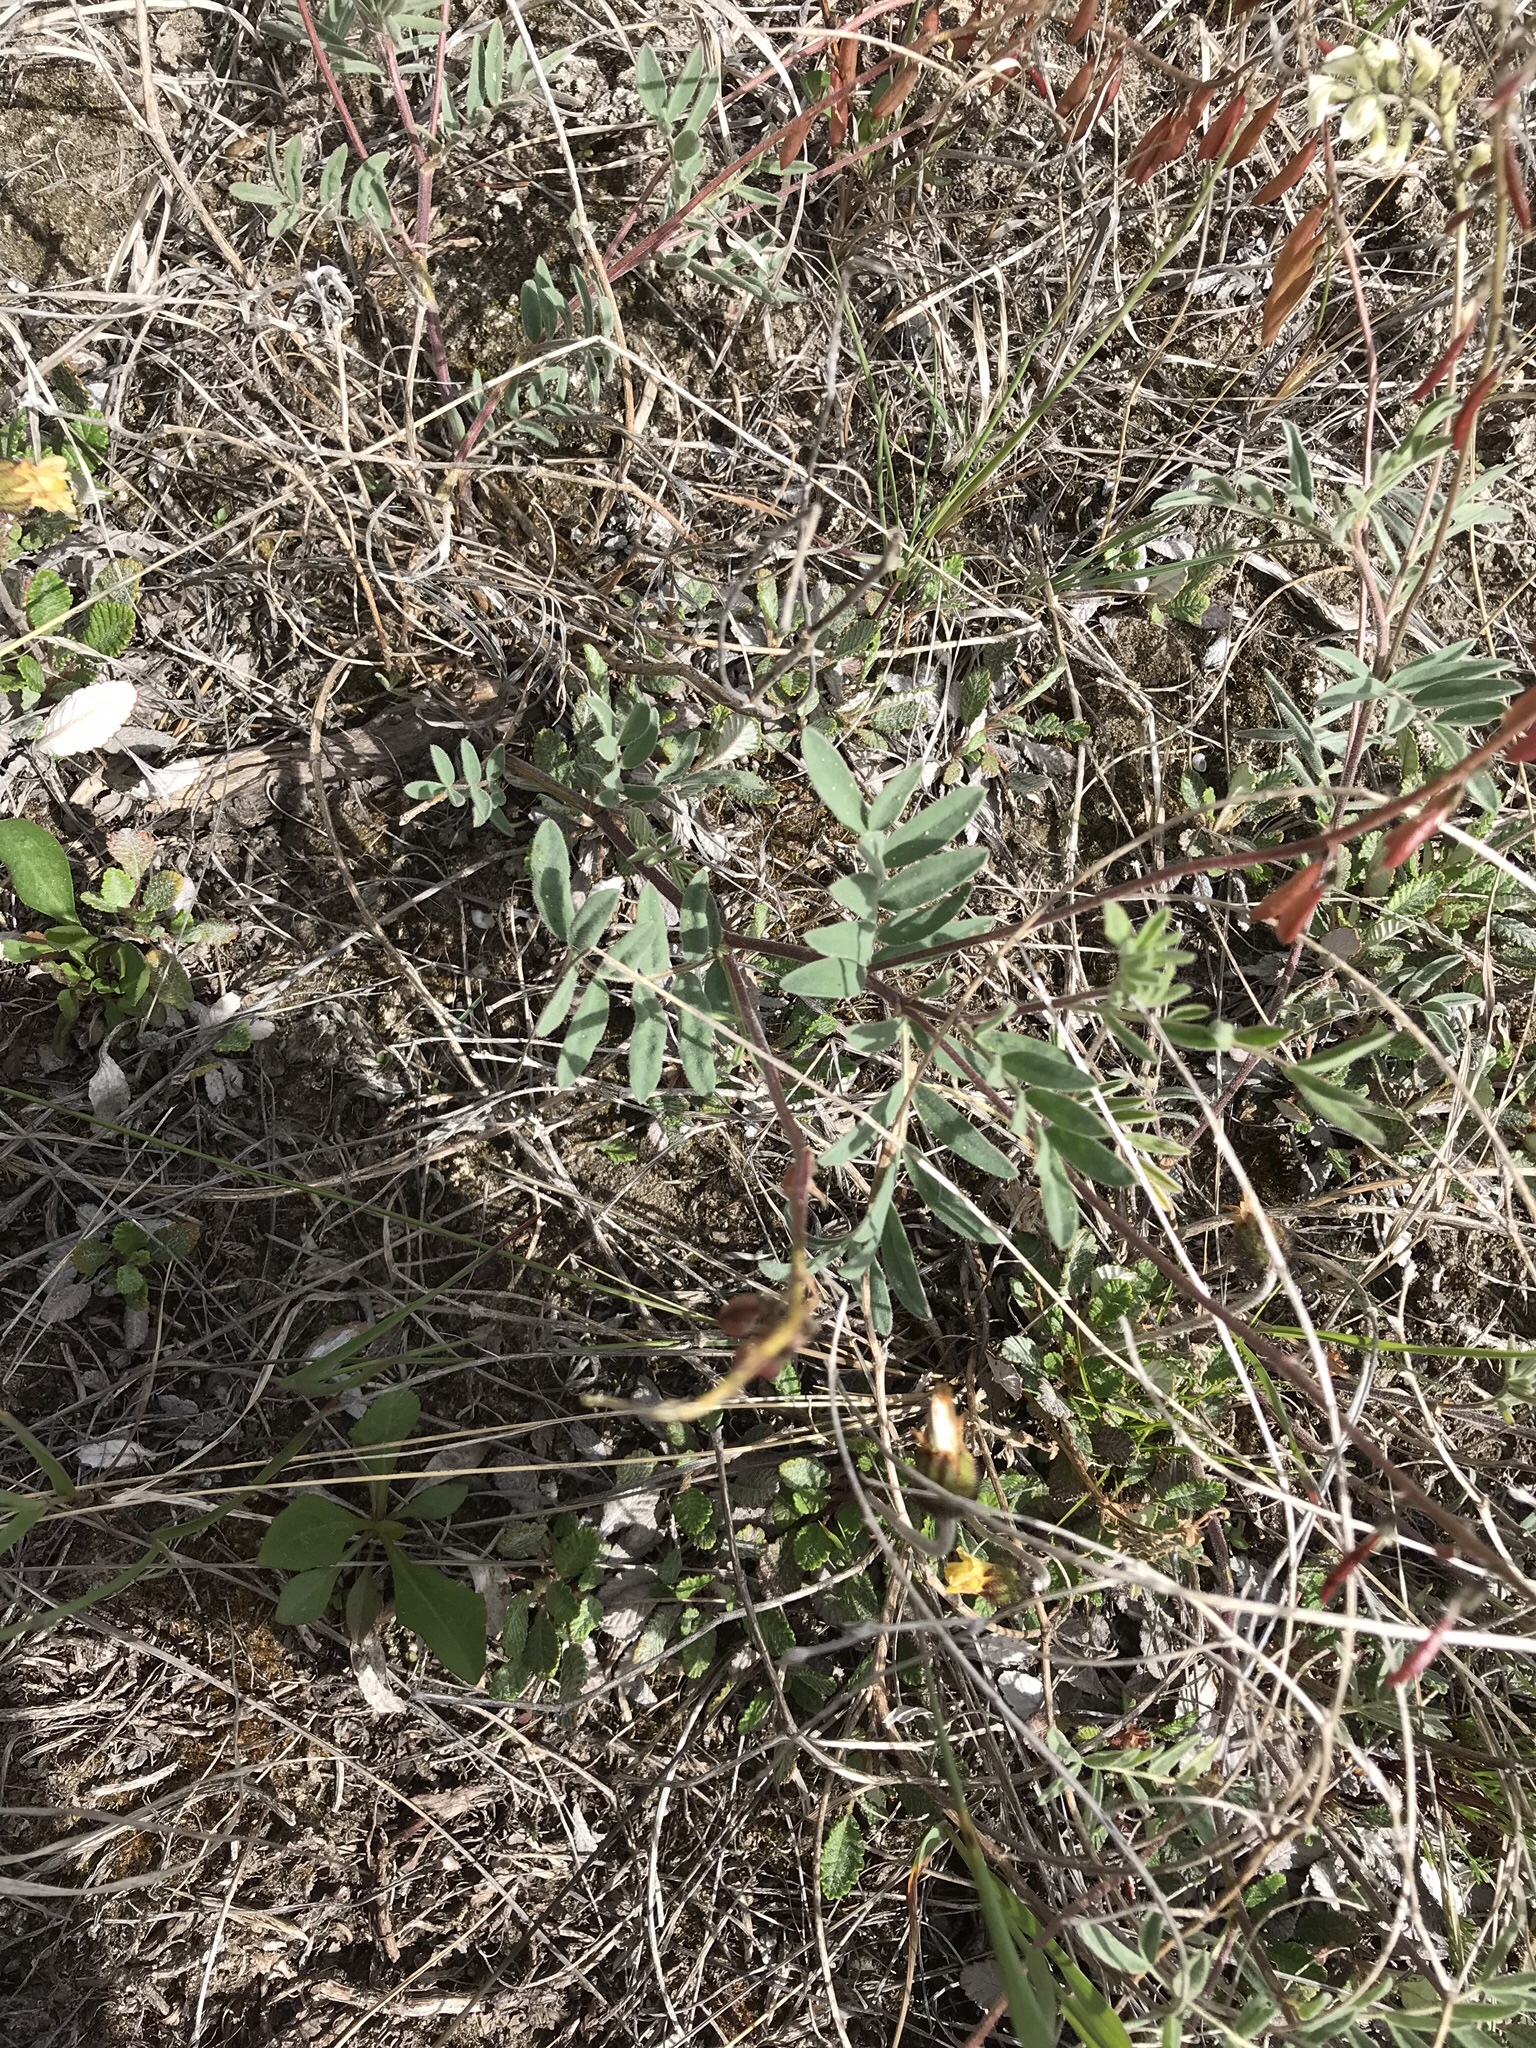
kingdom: Plantae
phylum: Tracheophyta
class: Magnoliopsida
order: Fabales
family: Fabaceae
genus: Astragalus
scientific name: Astragalus australis
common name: Indian milk-vetch
